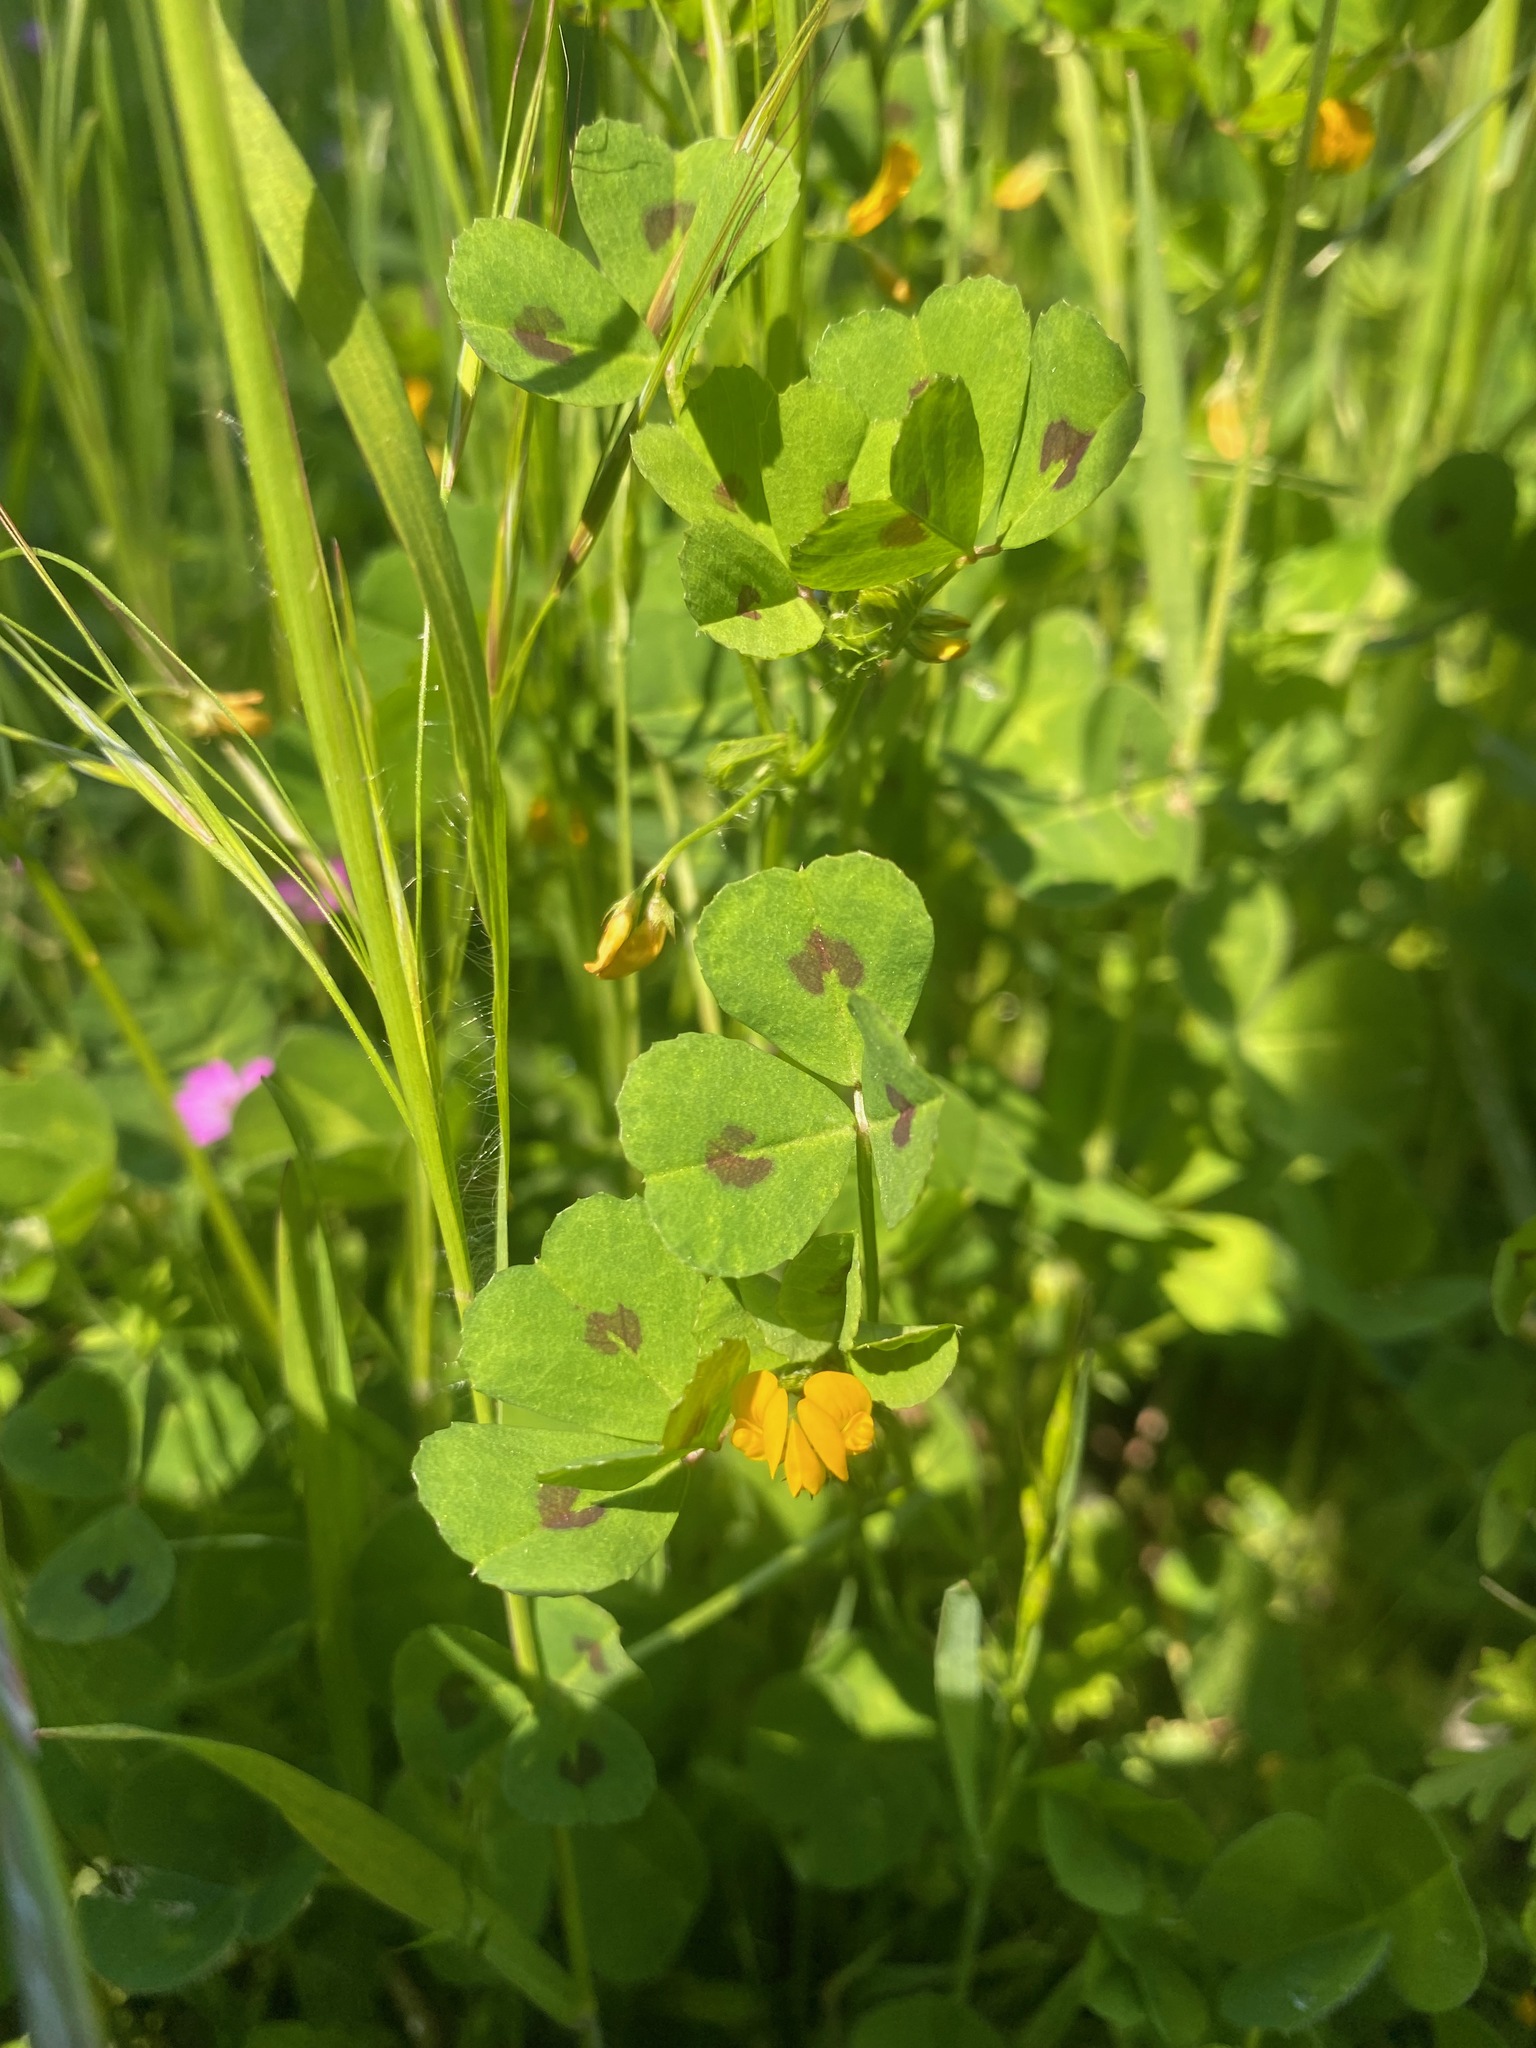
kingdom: Plantae
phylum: Tracheophyta
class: Magnoliopsida
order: Fabales
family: Fabaceae
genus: Medicago
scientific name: Medicago arabica
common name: Spotted medick
